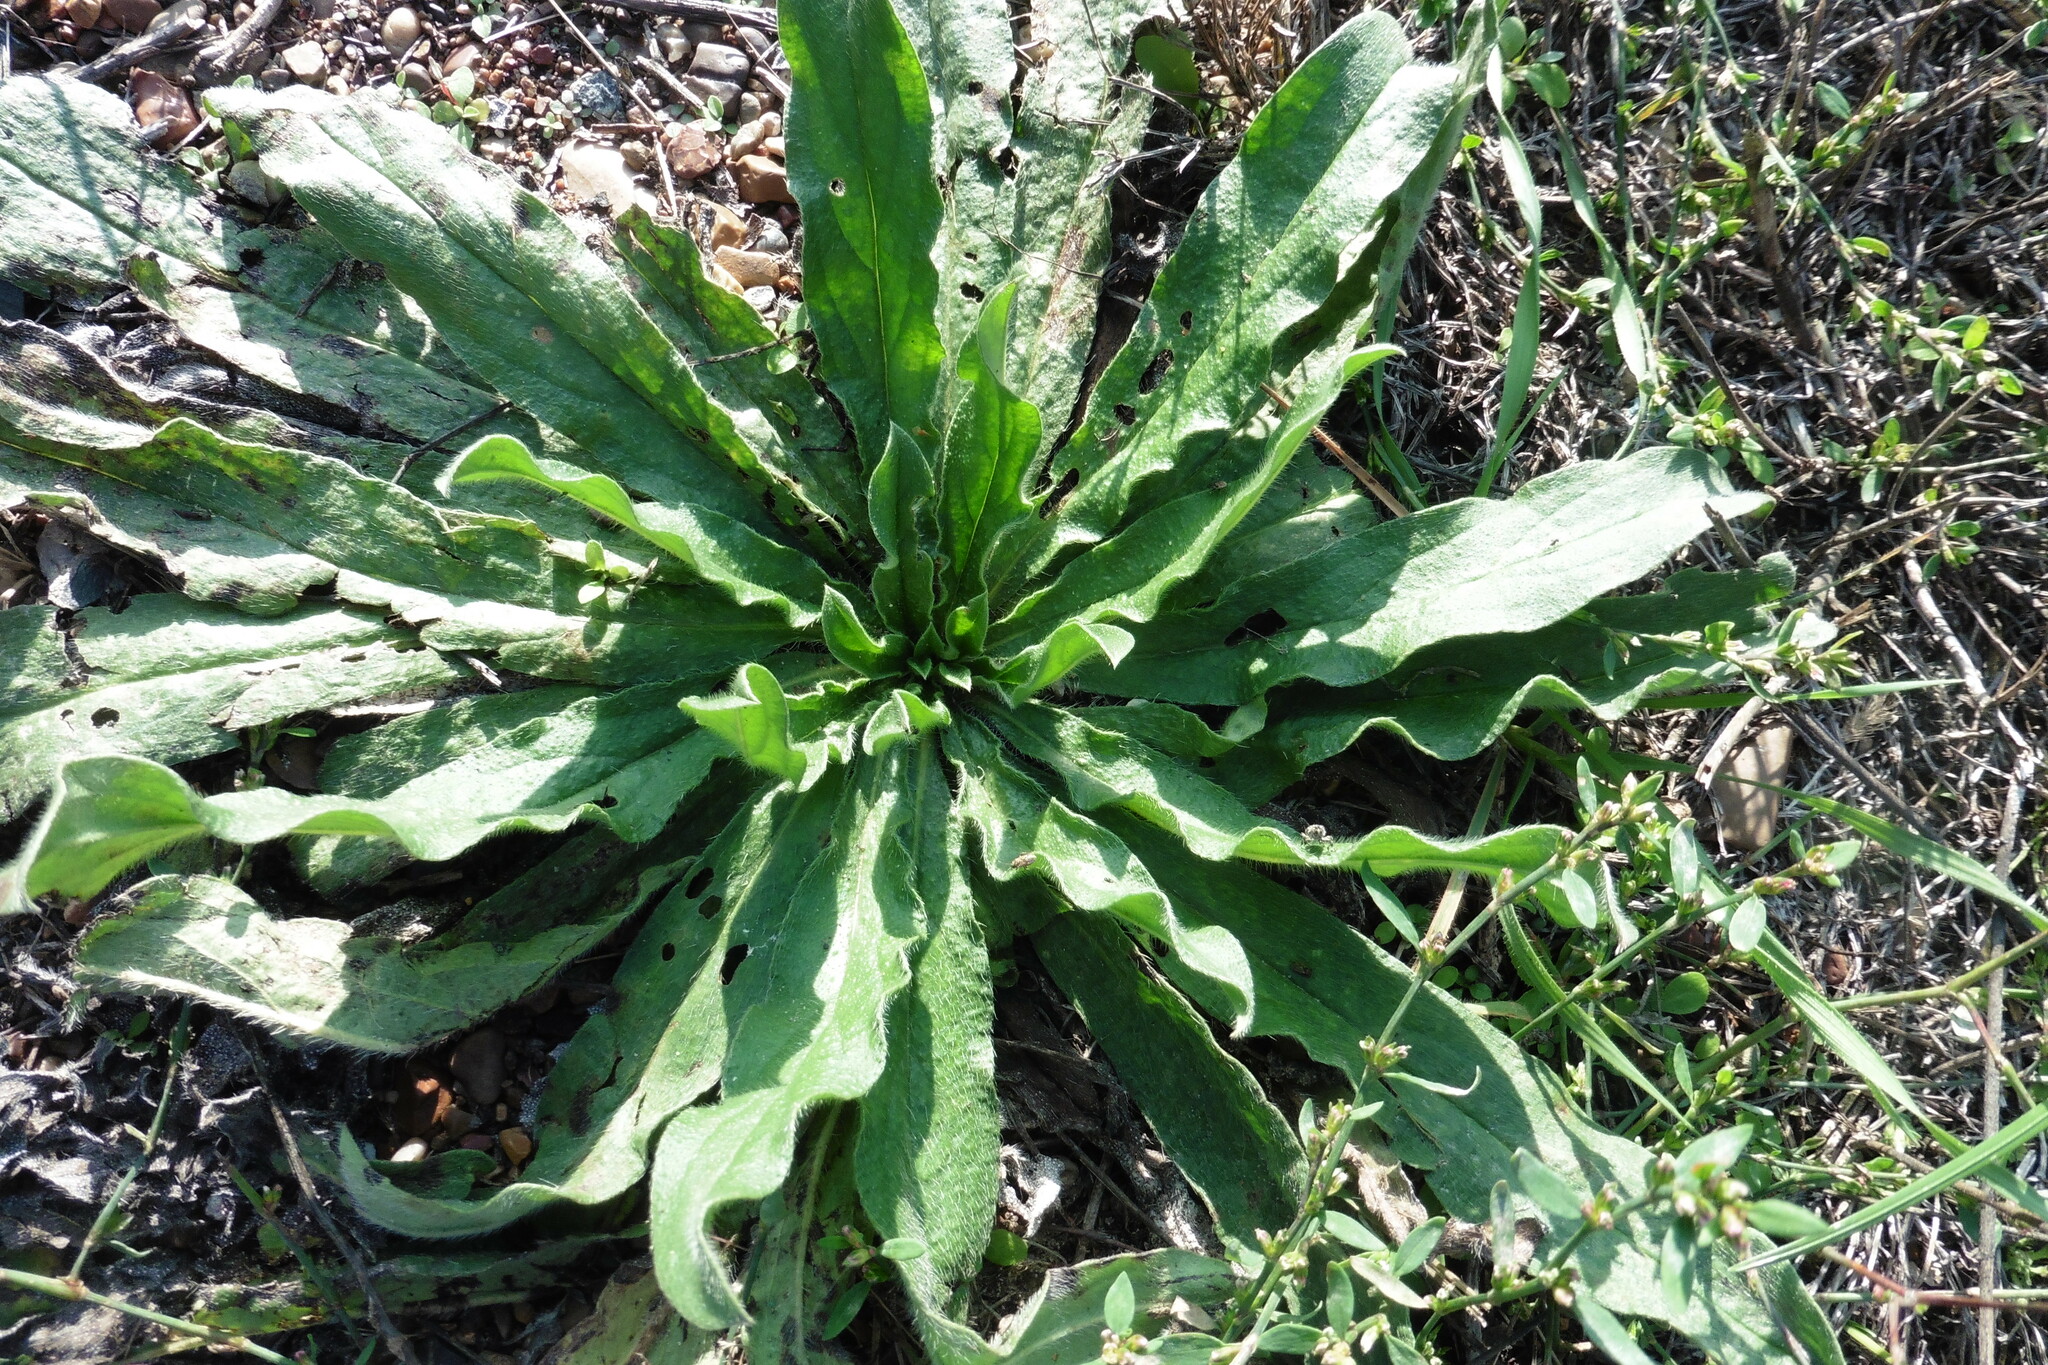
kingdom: Plantae
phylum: Tracheophyta
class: Magnoliopsida
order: Boraginales
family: Boraginaceae
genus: Echium
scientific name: Echium vulgare
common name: Common viper's bugloss
